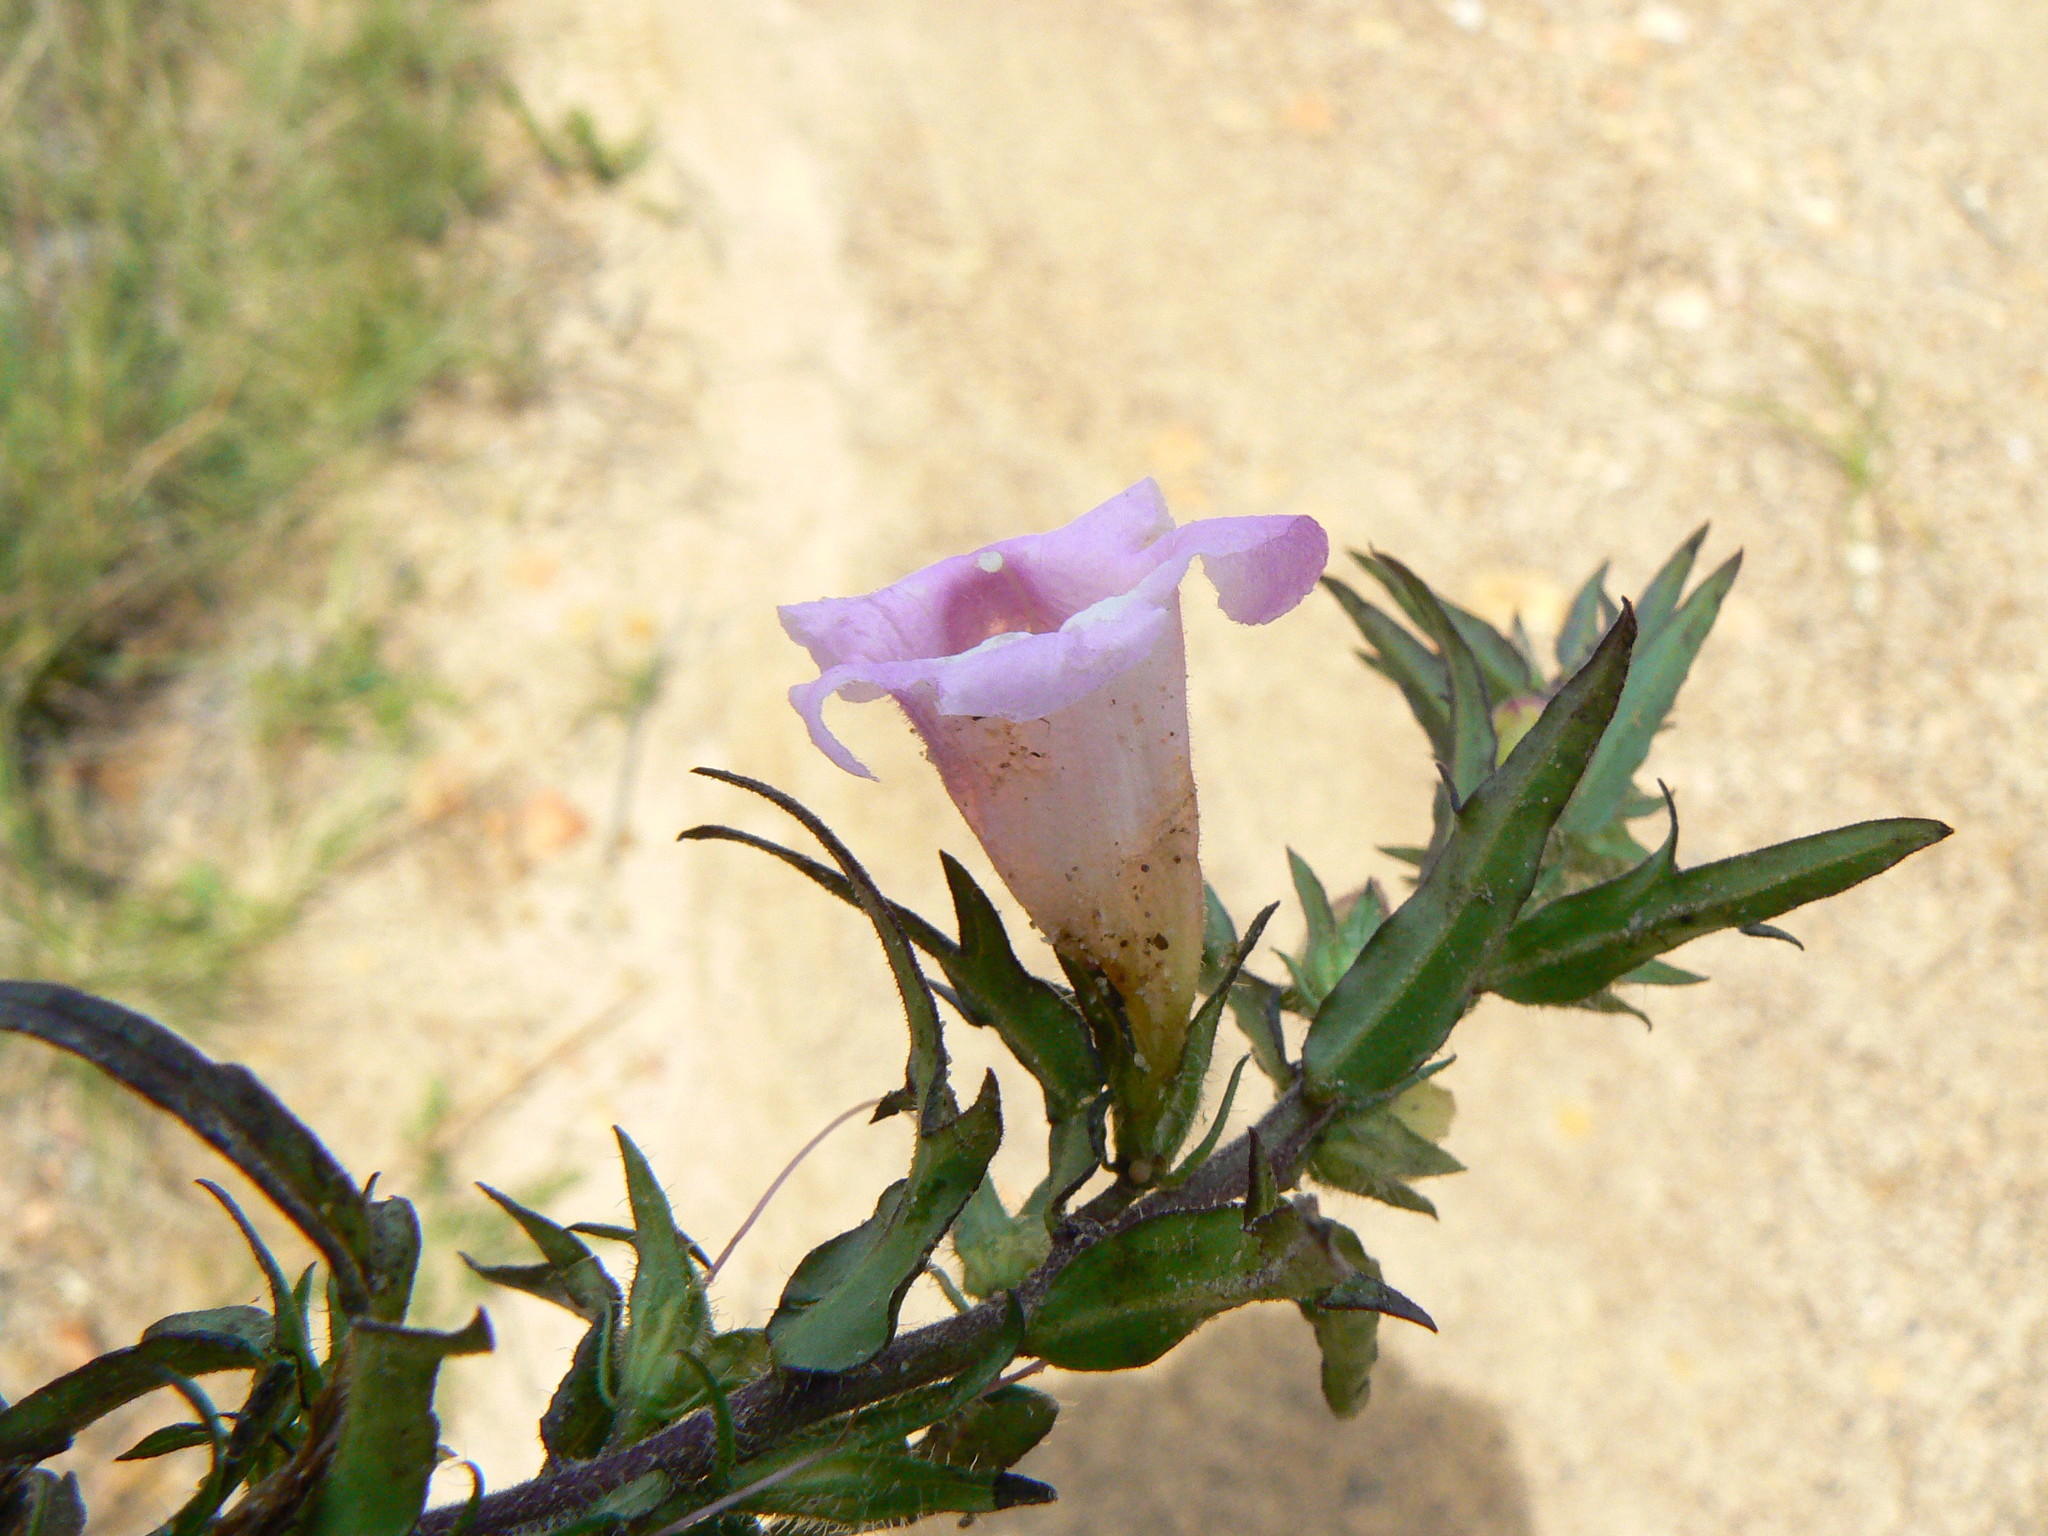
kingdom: Plantae
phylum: Tracheophyta
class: Magnoliopsida
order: Lamiales
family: Orobanchaceae
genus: Graderia
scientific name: Graderia scabra
